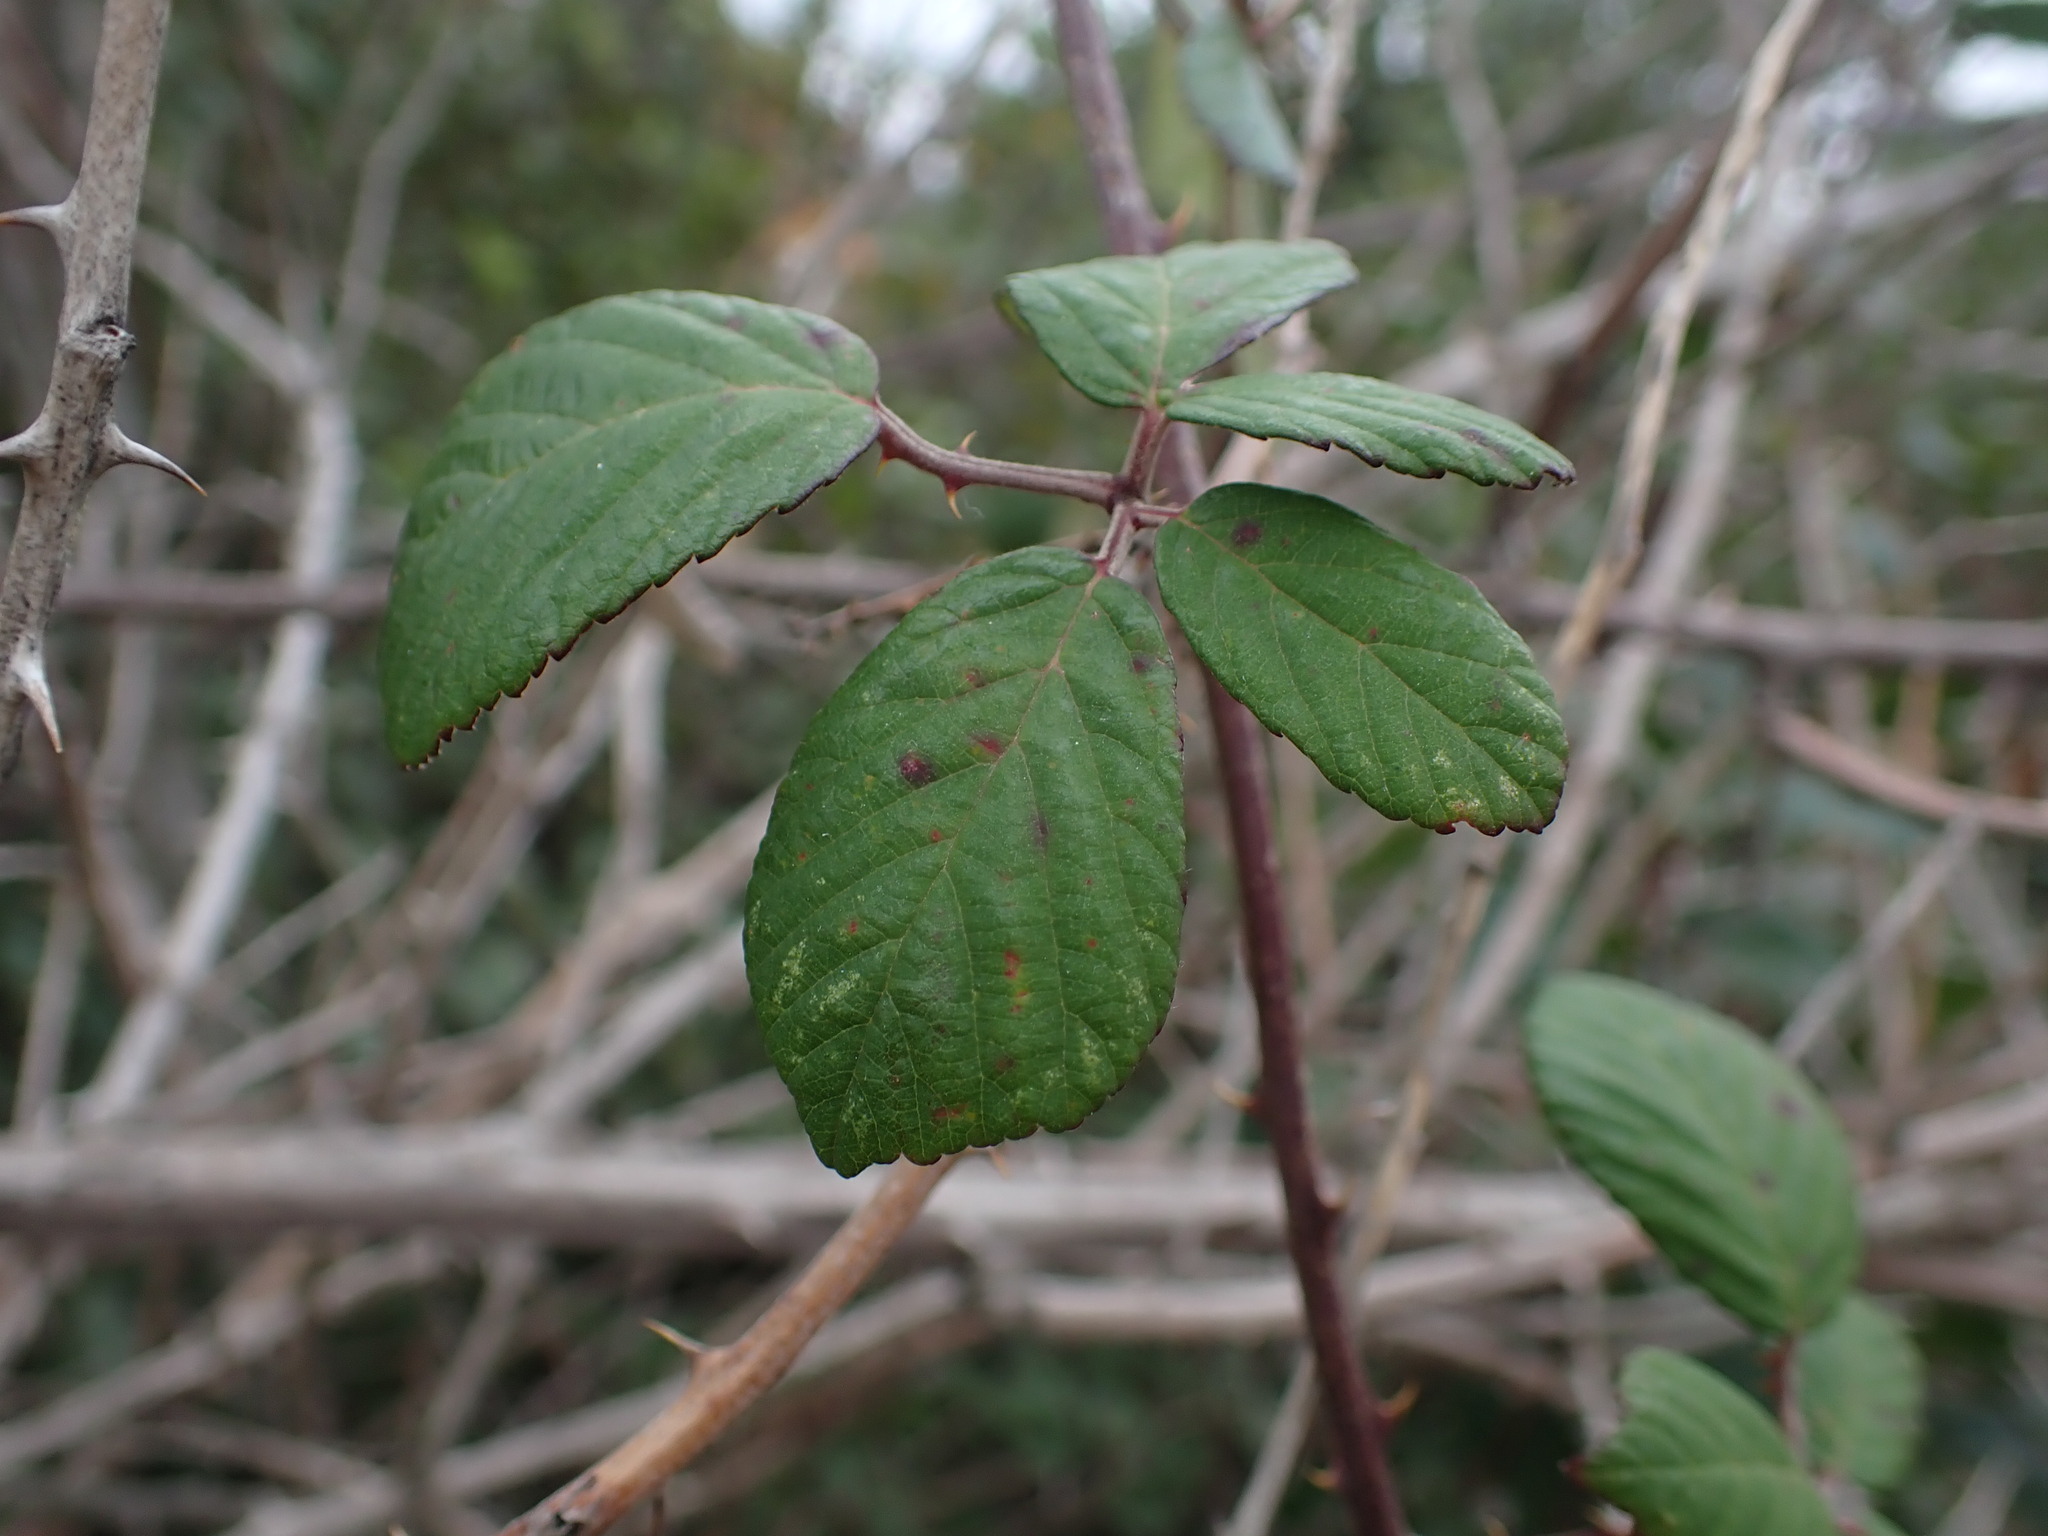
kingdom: Plantae
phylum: Tracheophyta
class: Magnoliopsida
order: Rosales
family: Rosaceae
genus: Rubus
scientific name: Rubus ulmifolius
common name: Elmleaf blackberry
